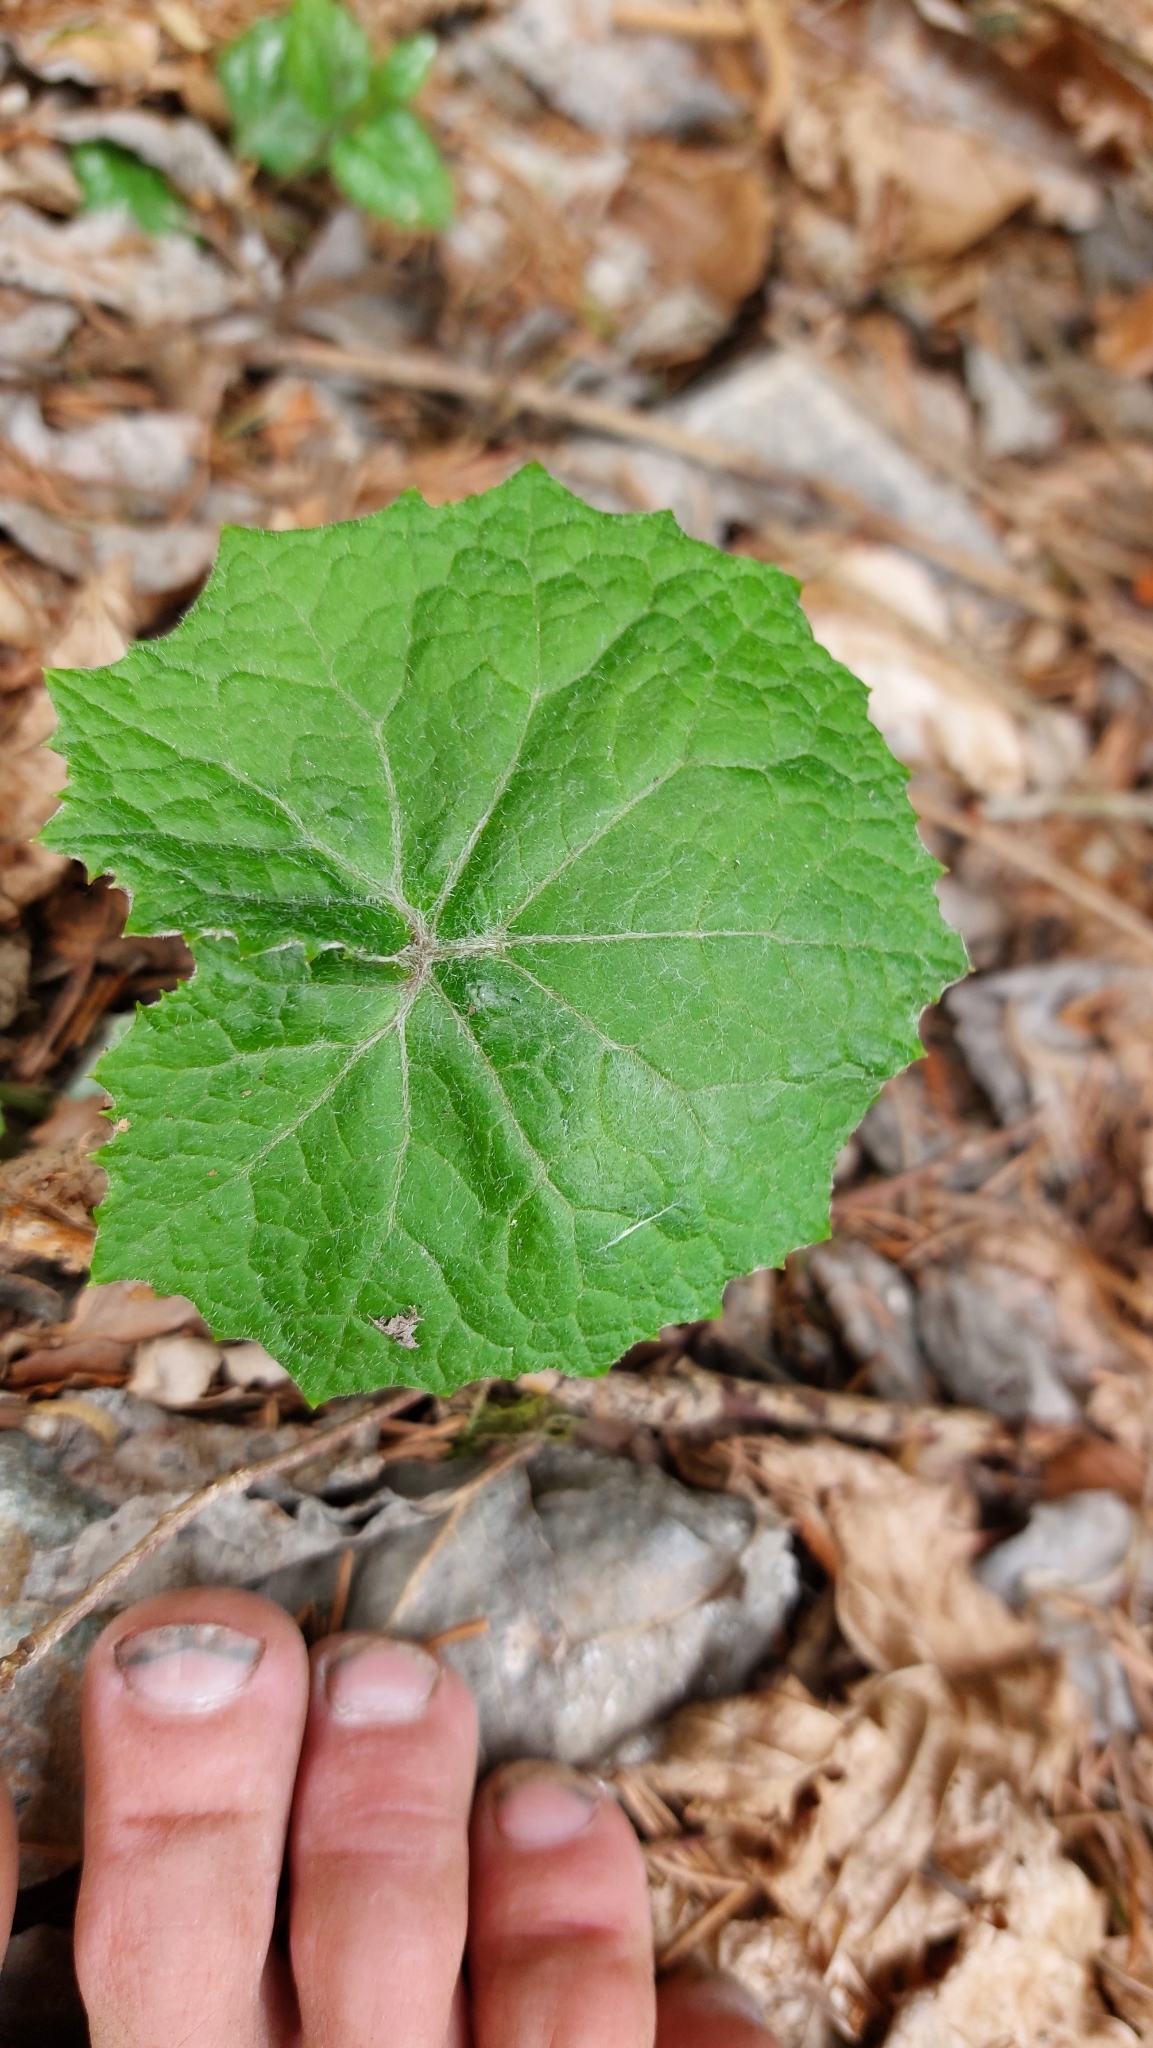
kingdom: Plantae
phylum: Tracheophyta
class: Magnoliopsida
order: Asterales
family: Asteraceae
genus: Petasites
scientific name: Petasites albus
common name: White butterbur
